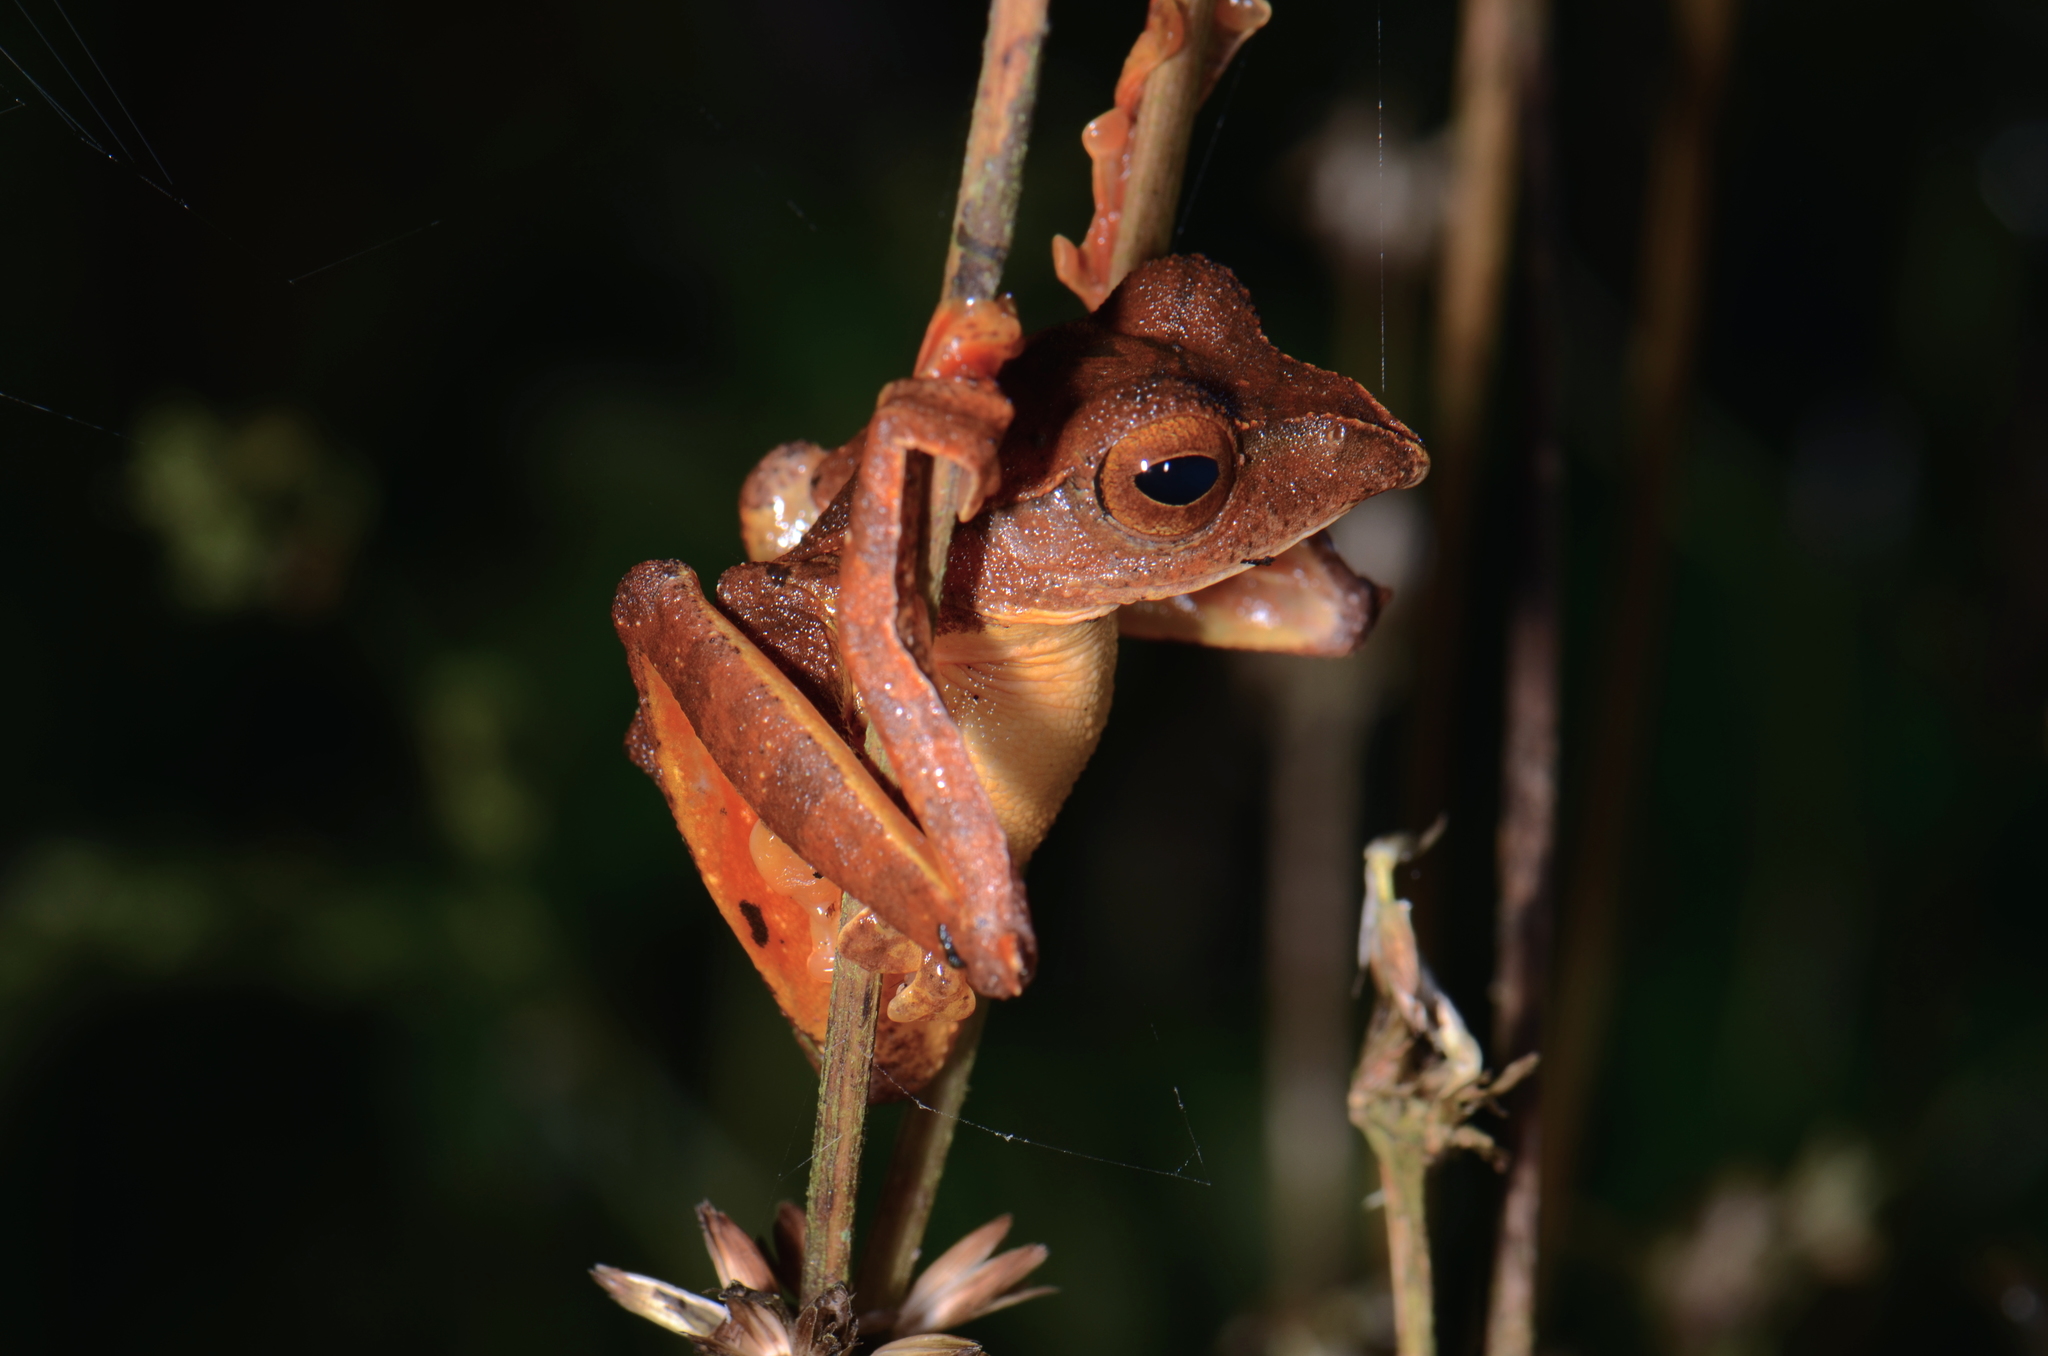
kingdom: Animalia
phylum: Chordata
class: Amphibia
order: Anura
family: Rhacophoridae
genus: Rhacophorus
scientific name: Rhacophorus barisani
